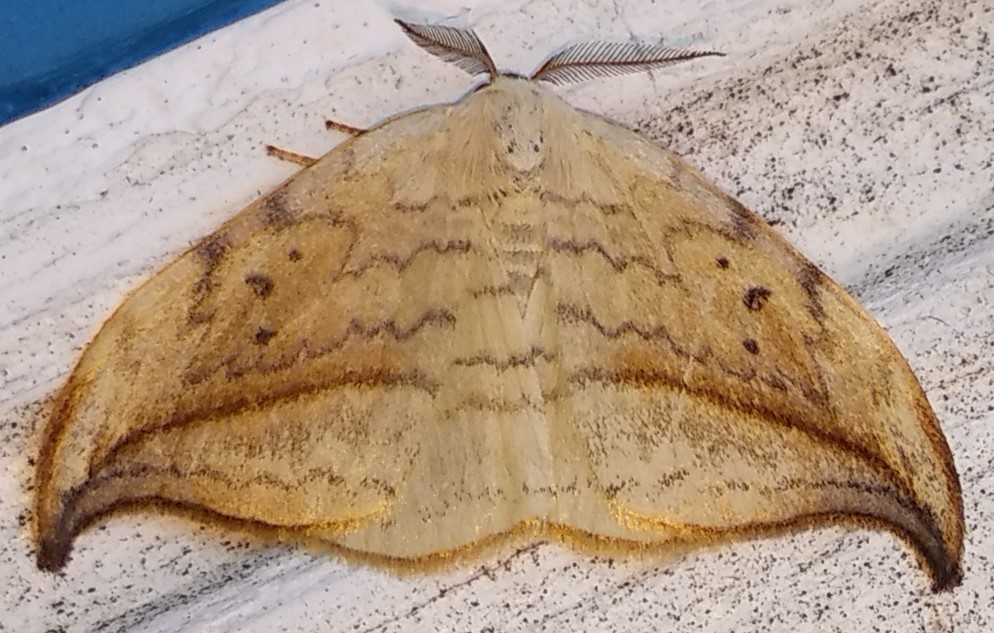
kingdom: Animalia
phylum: Arthropoda
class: Insecta
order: Lepidoptera
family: Drepanidae
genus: Drepana
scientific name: Drepana arcuata
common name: Arched hooktip moth
